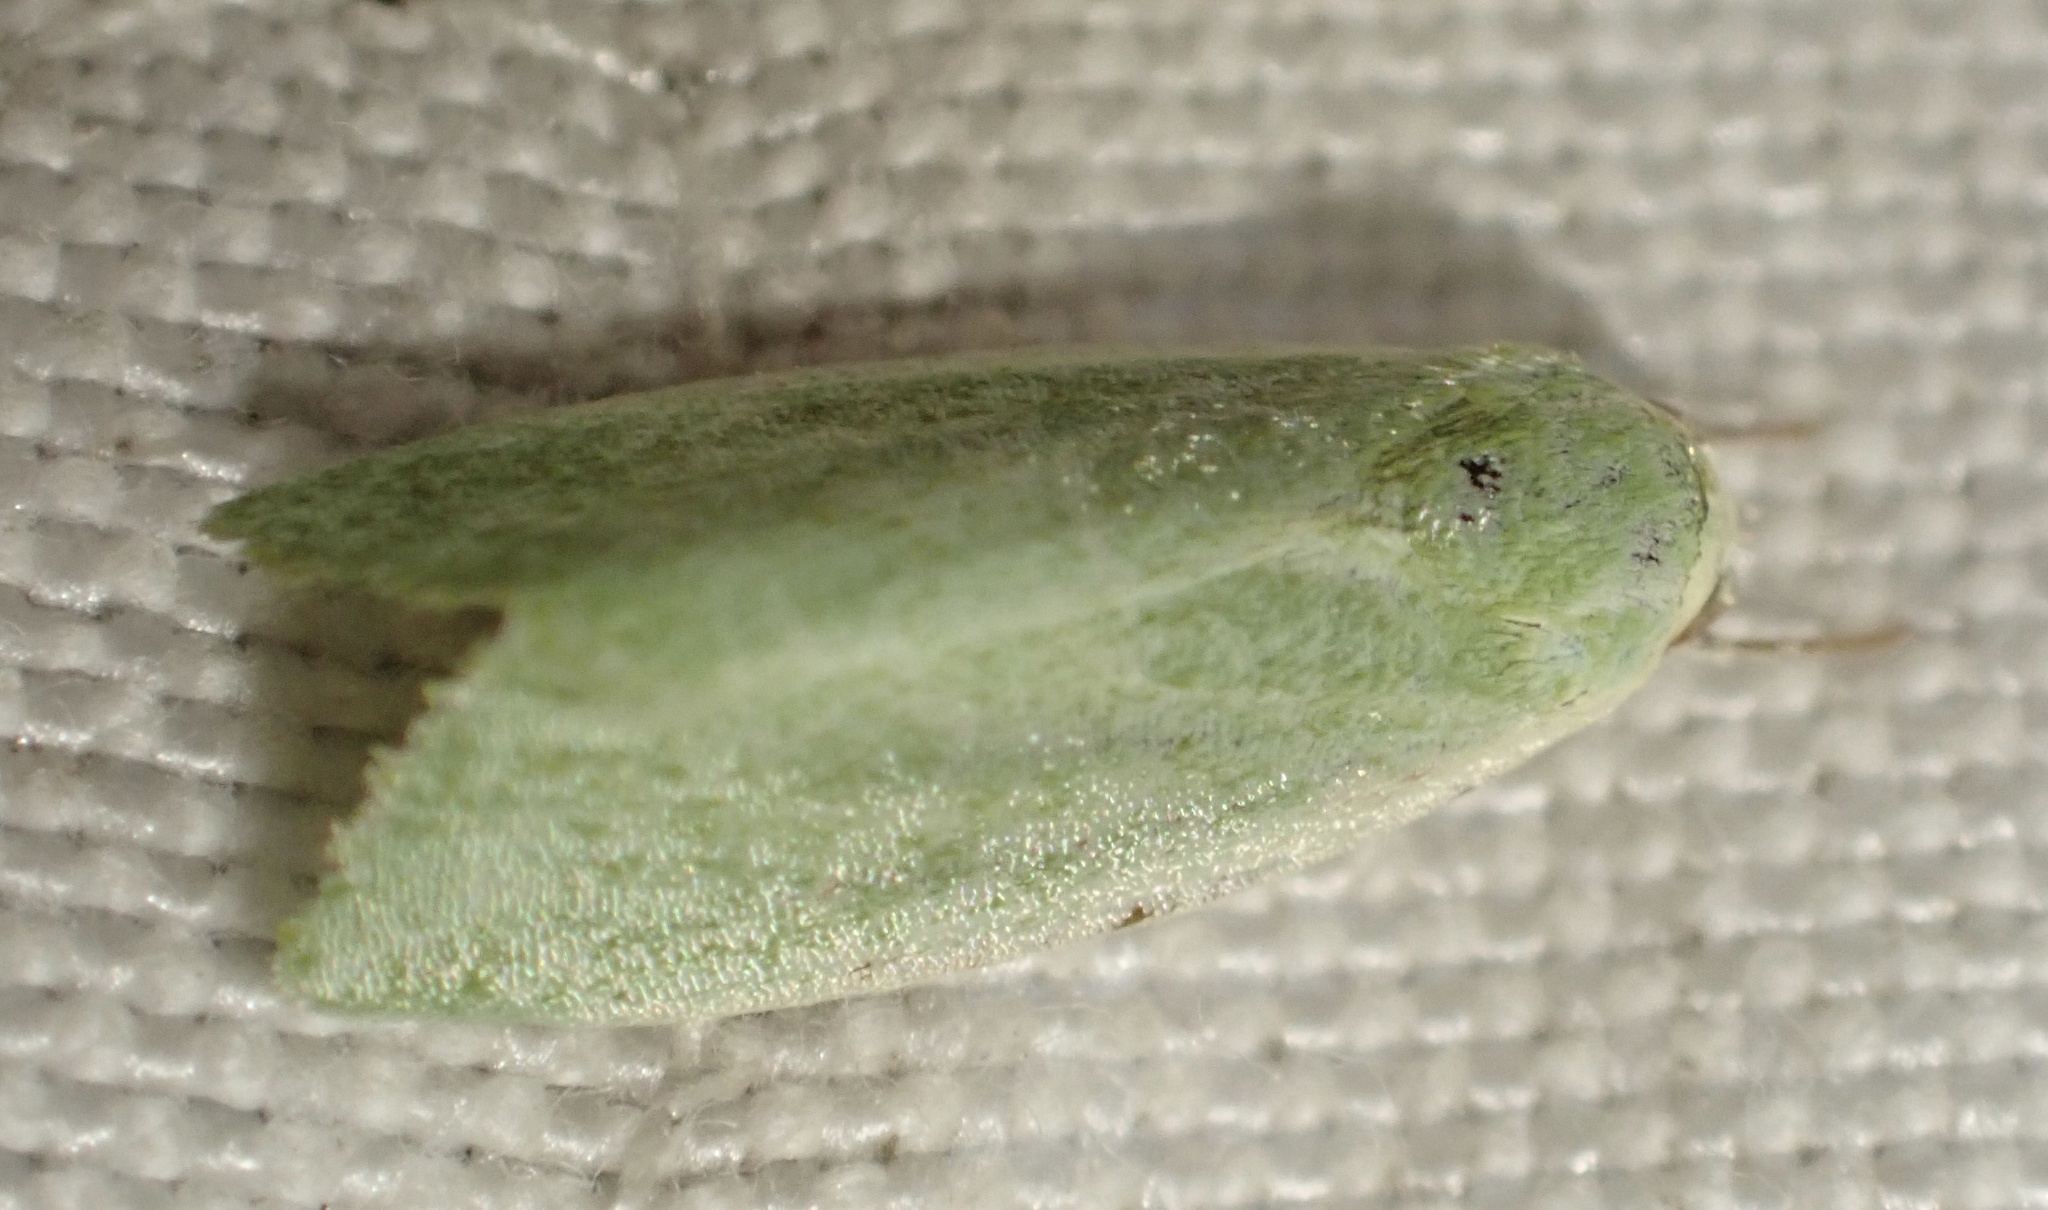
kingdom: Animalia
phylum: Arthropoda
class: Insecta
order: Lepidoptera
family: Nolidae
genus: Earias
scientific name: Earias clorana
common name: Cream-bordered green pea
